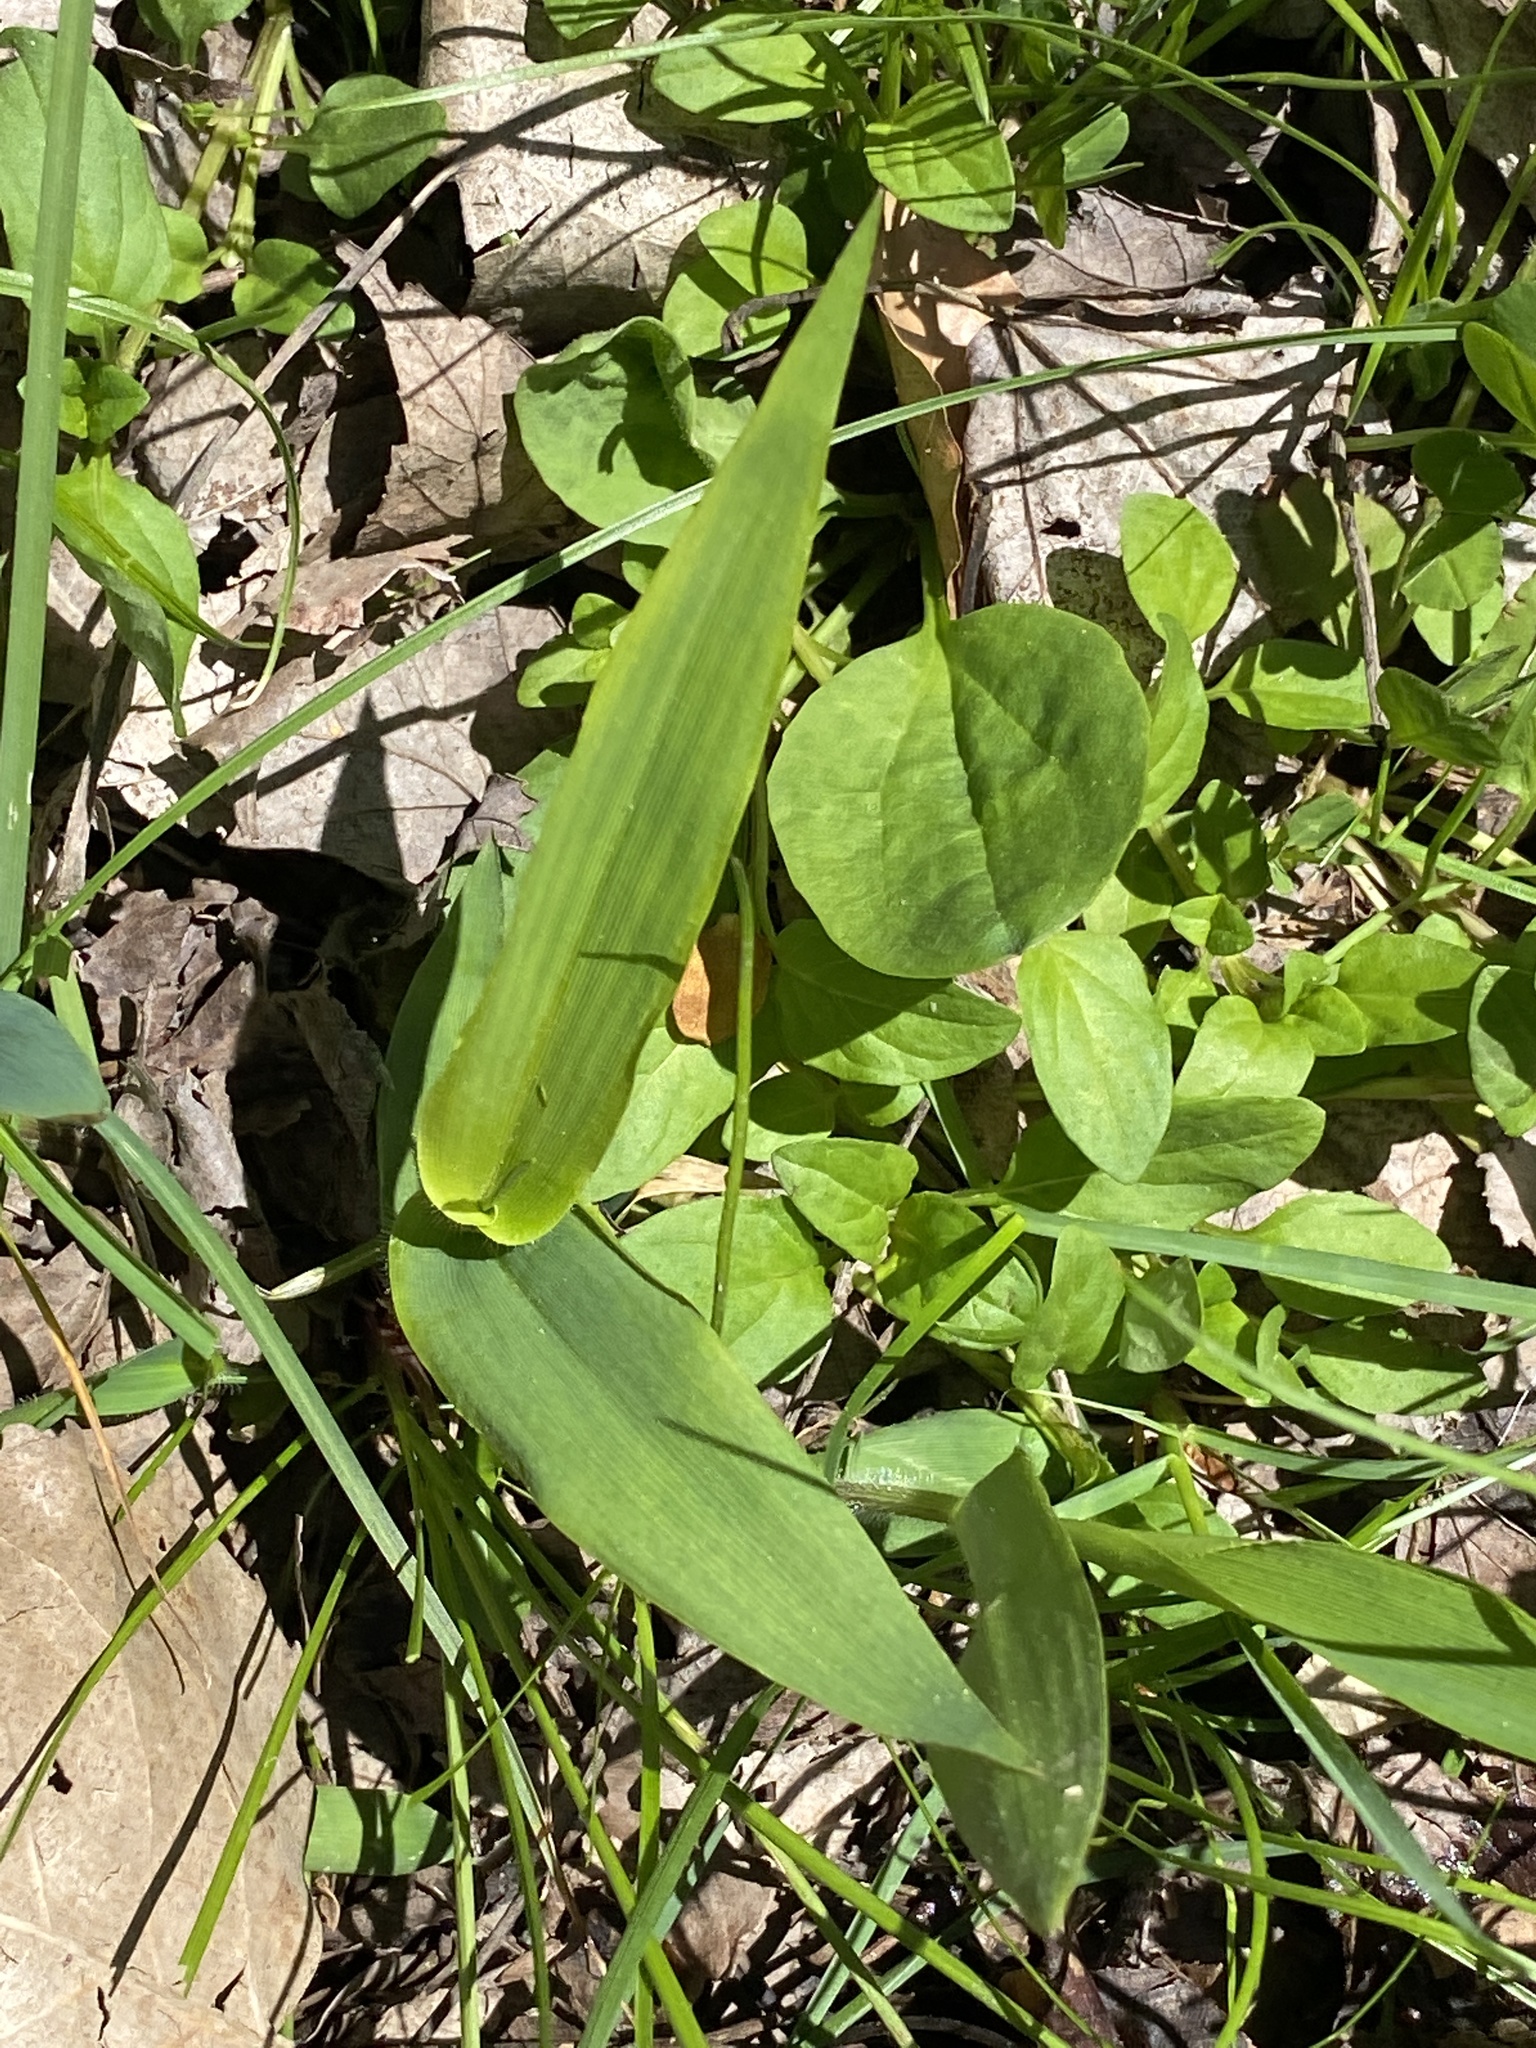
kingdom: Plantae
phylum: Tracheophyta
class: Liliopsida
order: Poales
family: Poaceae
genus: Dichanthelium
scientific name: Dichanthelium clandestinum
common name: Deer-tongue grass
